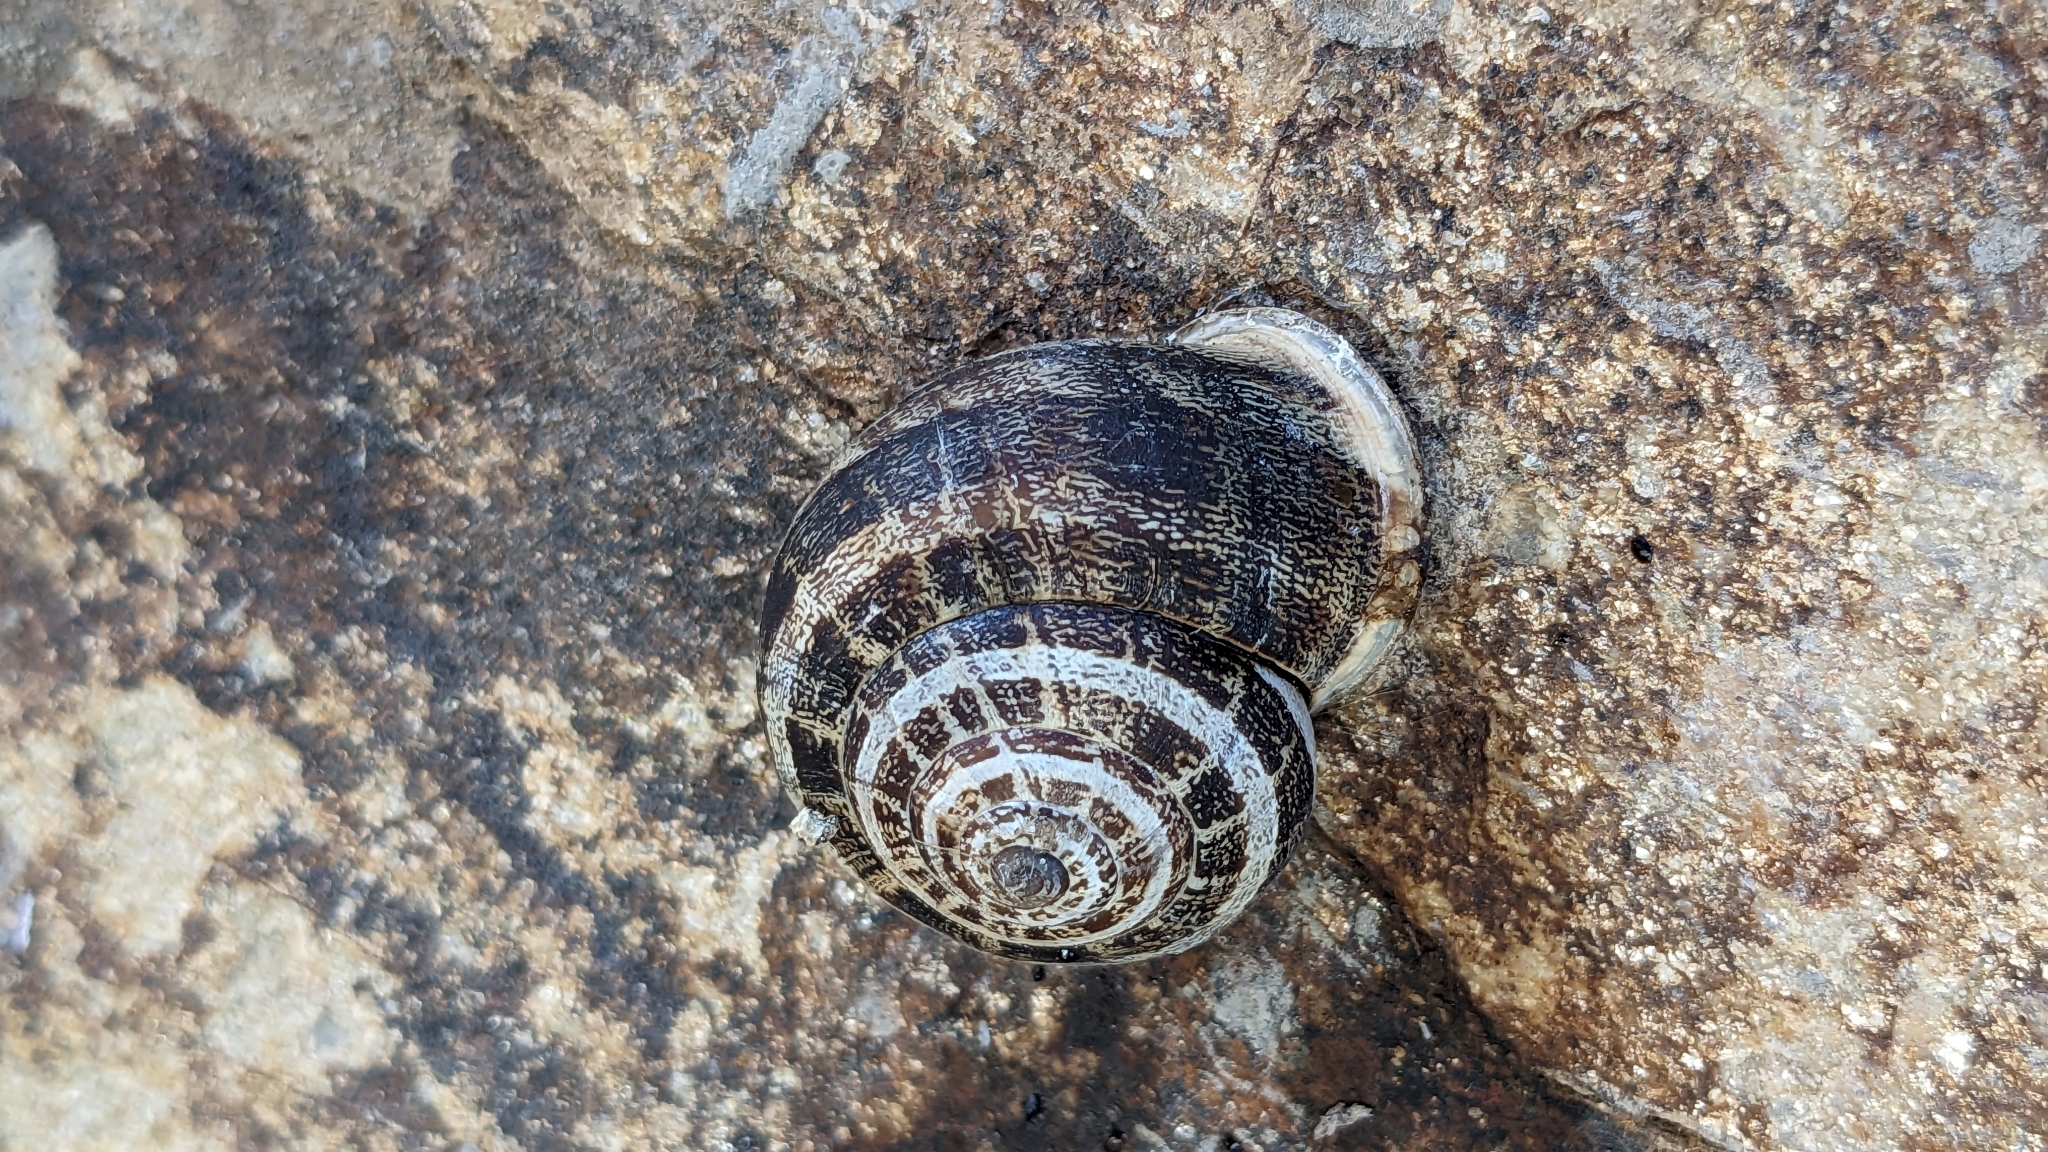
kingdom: Animalia
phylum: Mollusca
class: Gastropoda
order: Stylommatophora
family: Helicidae
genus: Eobania
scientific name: Eobania vermiculata
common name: Chocolateband snail
